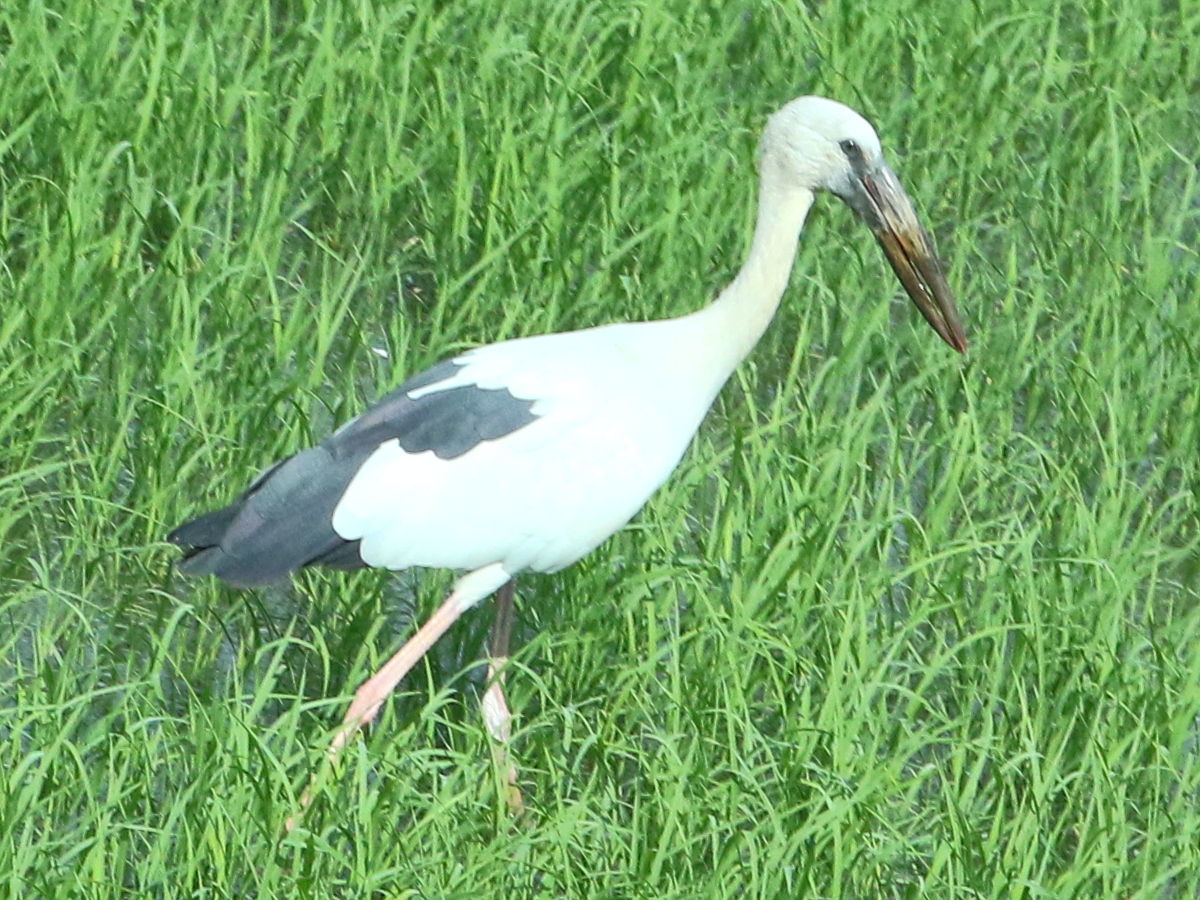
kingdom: Animalia
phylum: Chordata
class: Aves
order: Ciconiiformes
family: Ciconiidae
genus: Anastomus
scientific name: Anastomus oscitans
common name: Asian openbill
